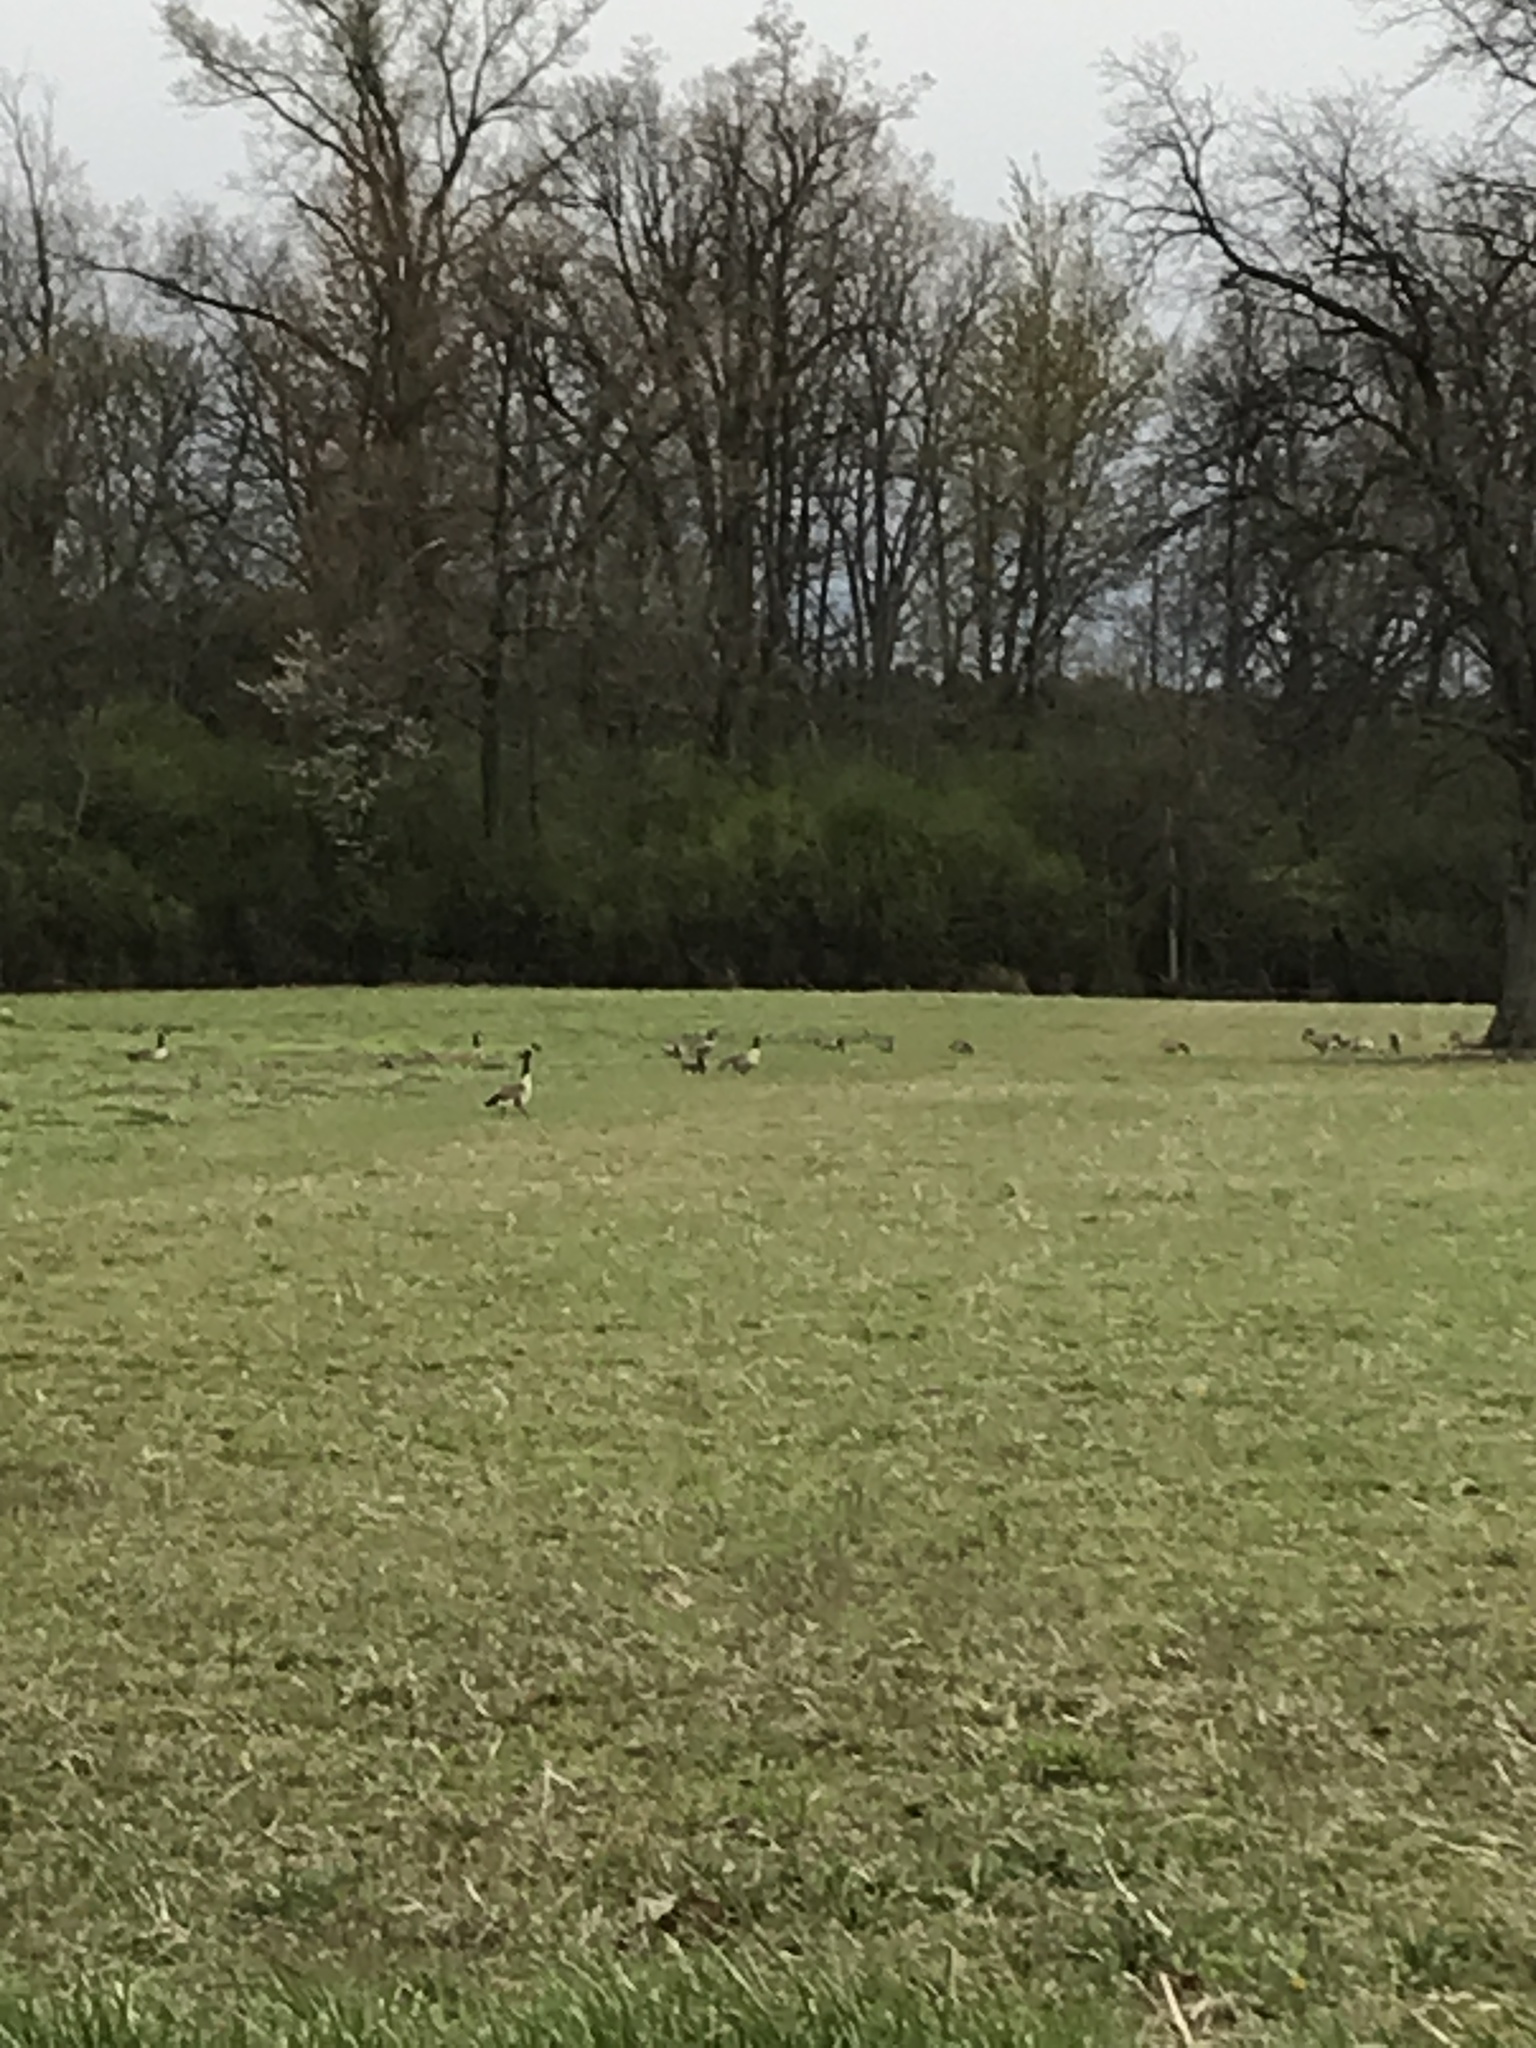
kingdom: Animalia
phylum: Chordata
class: Aves
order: Anseriformes
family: Anatidae
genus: Branta
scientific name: Branta canadensis
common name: Canada goose
